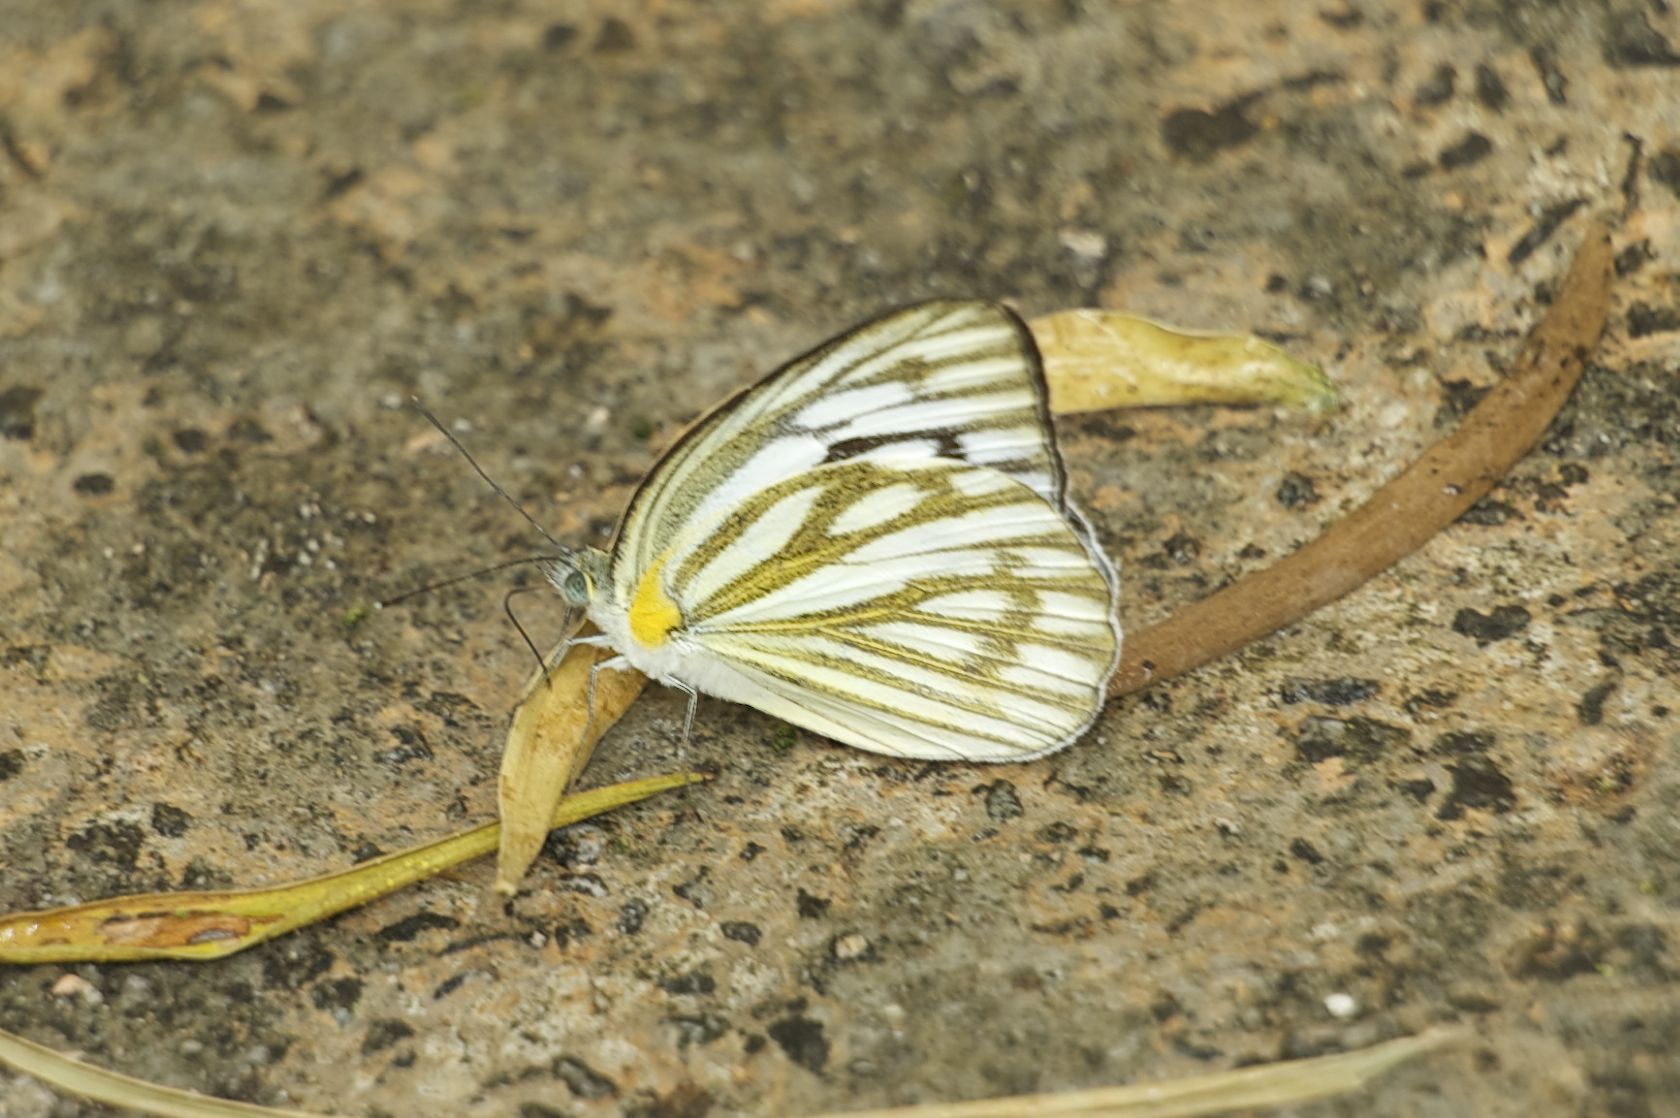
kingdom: Animalia
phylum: Arthropoda
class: Insecta
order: Lepidoptera
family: Pieridae
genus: Cepora
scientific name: Cepora nerissa
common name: Common gull
